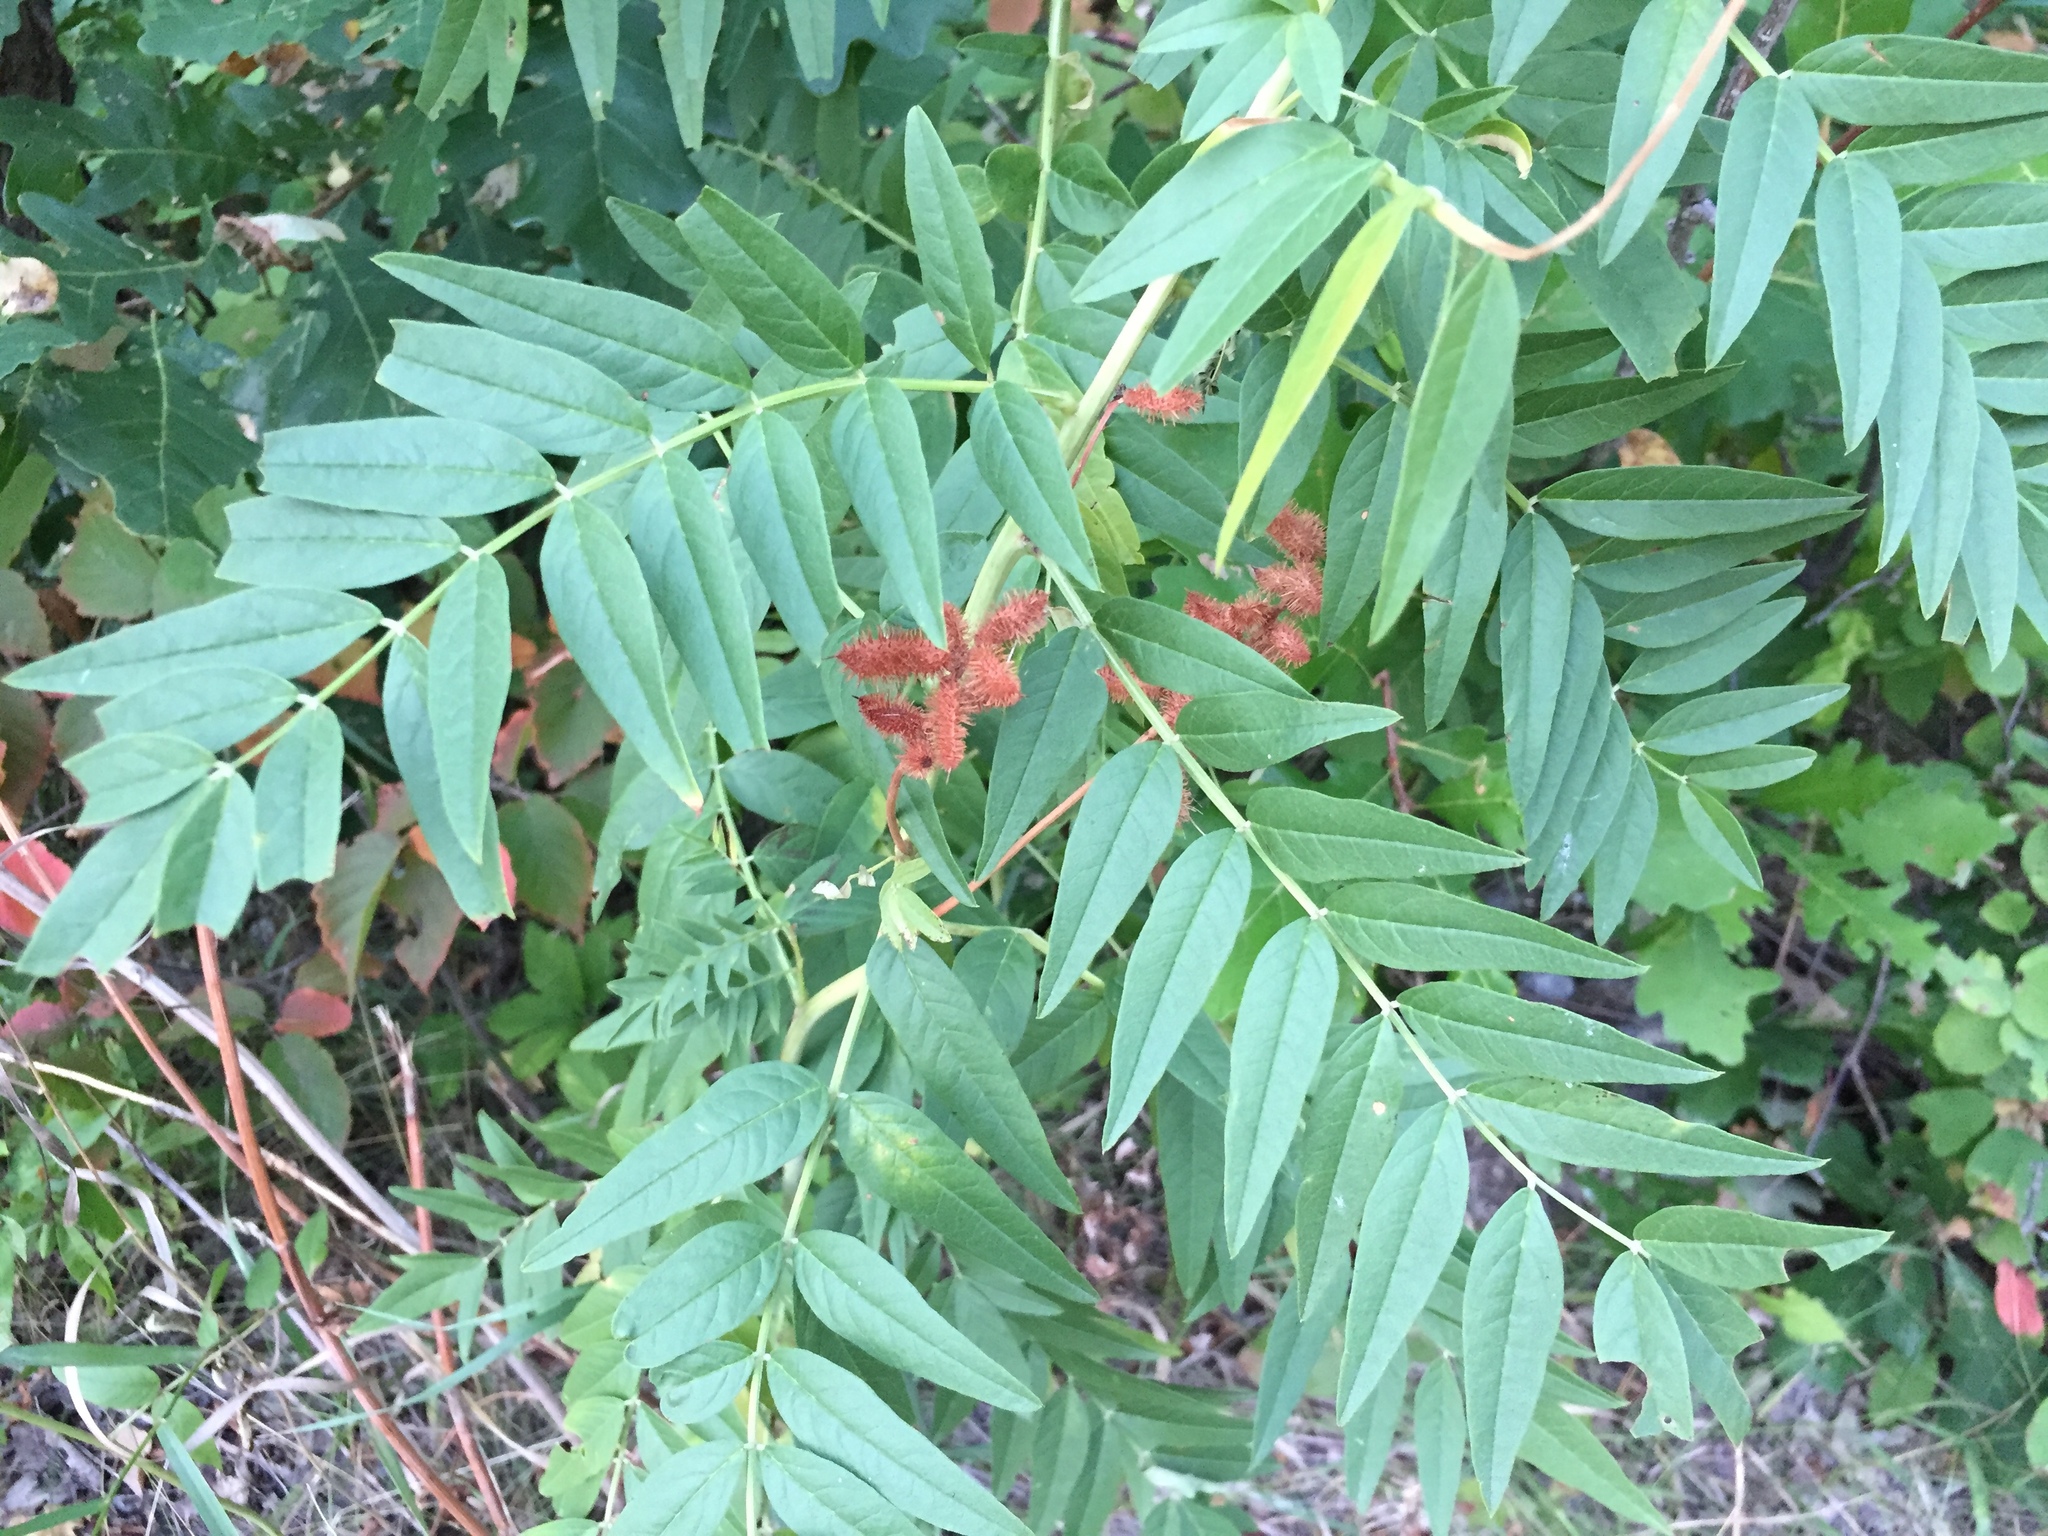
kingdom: Plantae
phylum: Tracheophyta
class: Magnoliopsida
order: Fabales
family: Fabaceae
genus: Glycyrrhiza
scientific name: Glycyrrhiza lepidota
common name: American liquorice
